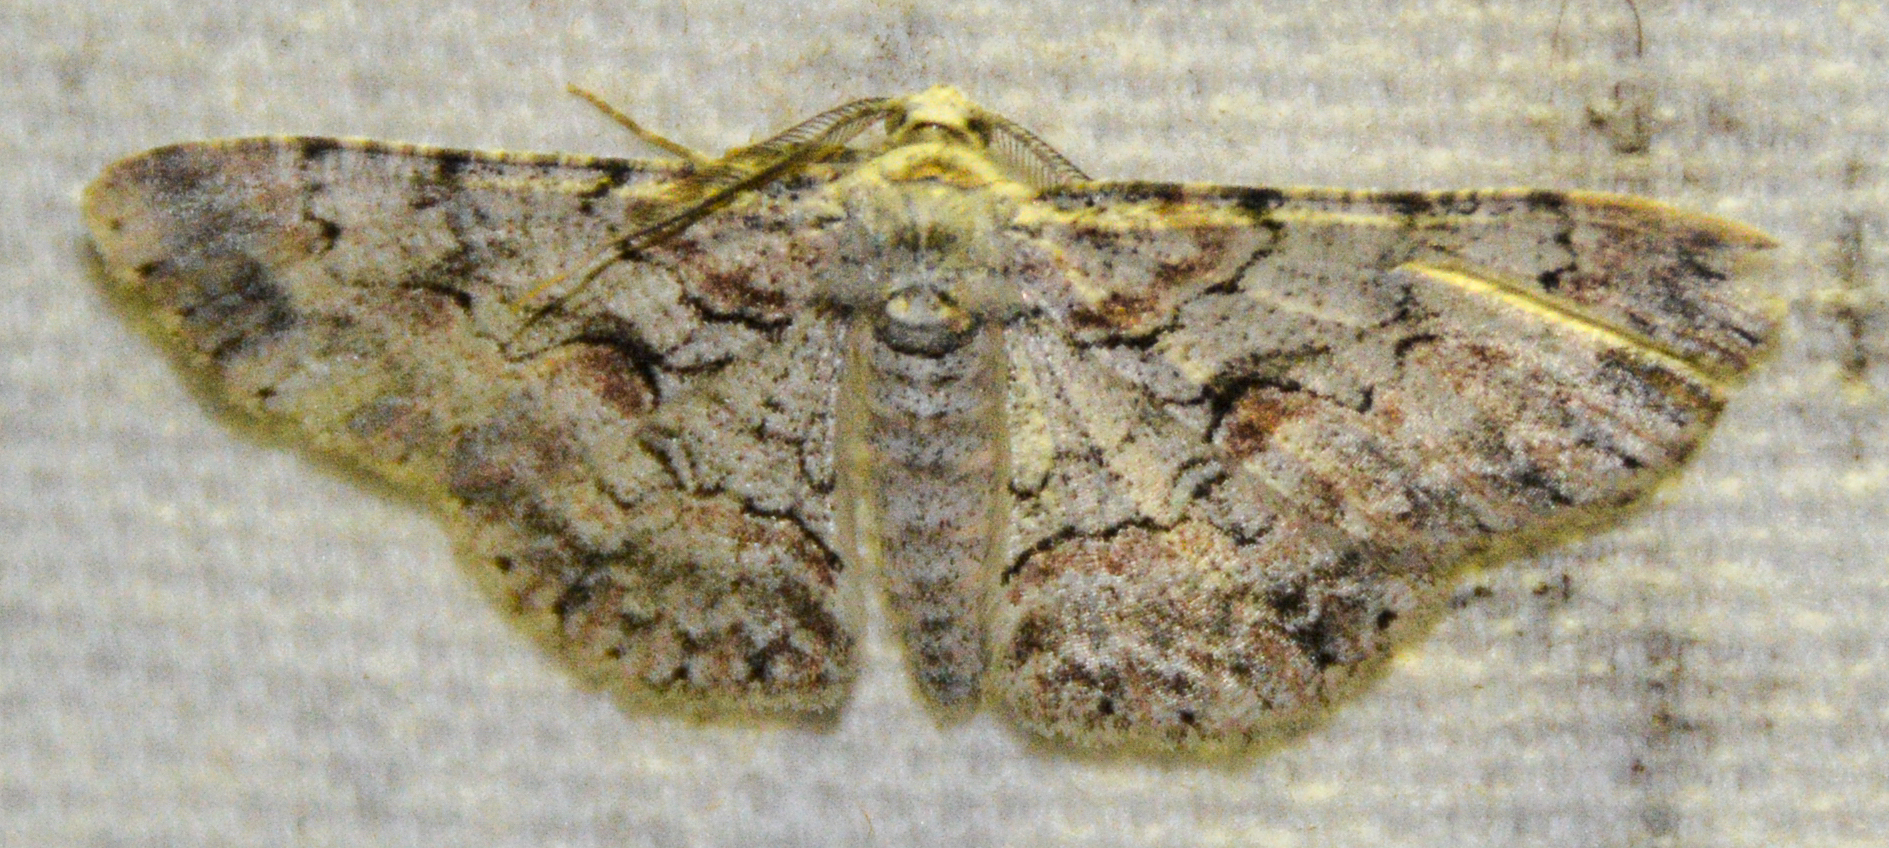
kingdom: Animalia
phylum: Arthropoda
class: Insecta
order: Lepidoptera
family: Geometridae
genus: Iridopsis
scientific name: Iridopsis defectaria
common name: Brown-shaded gray
